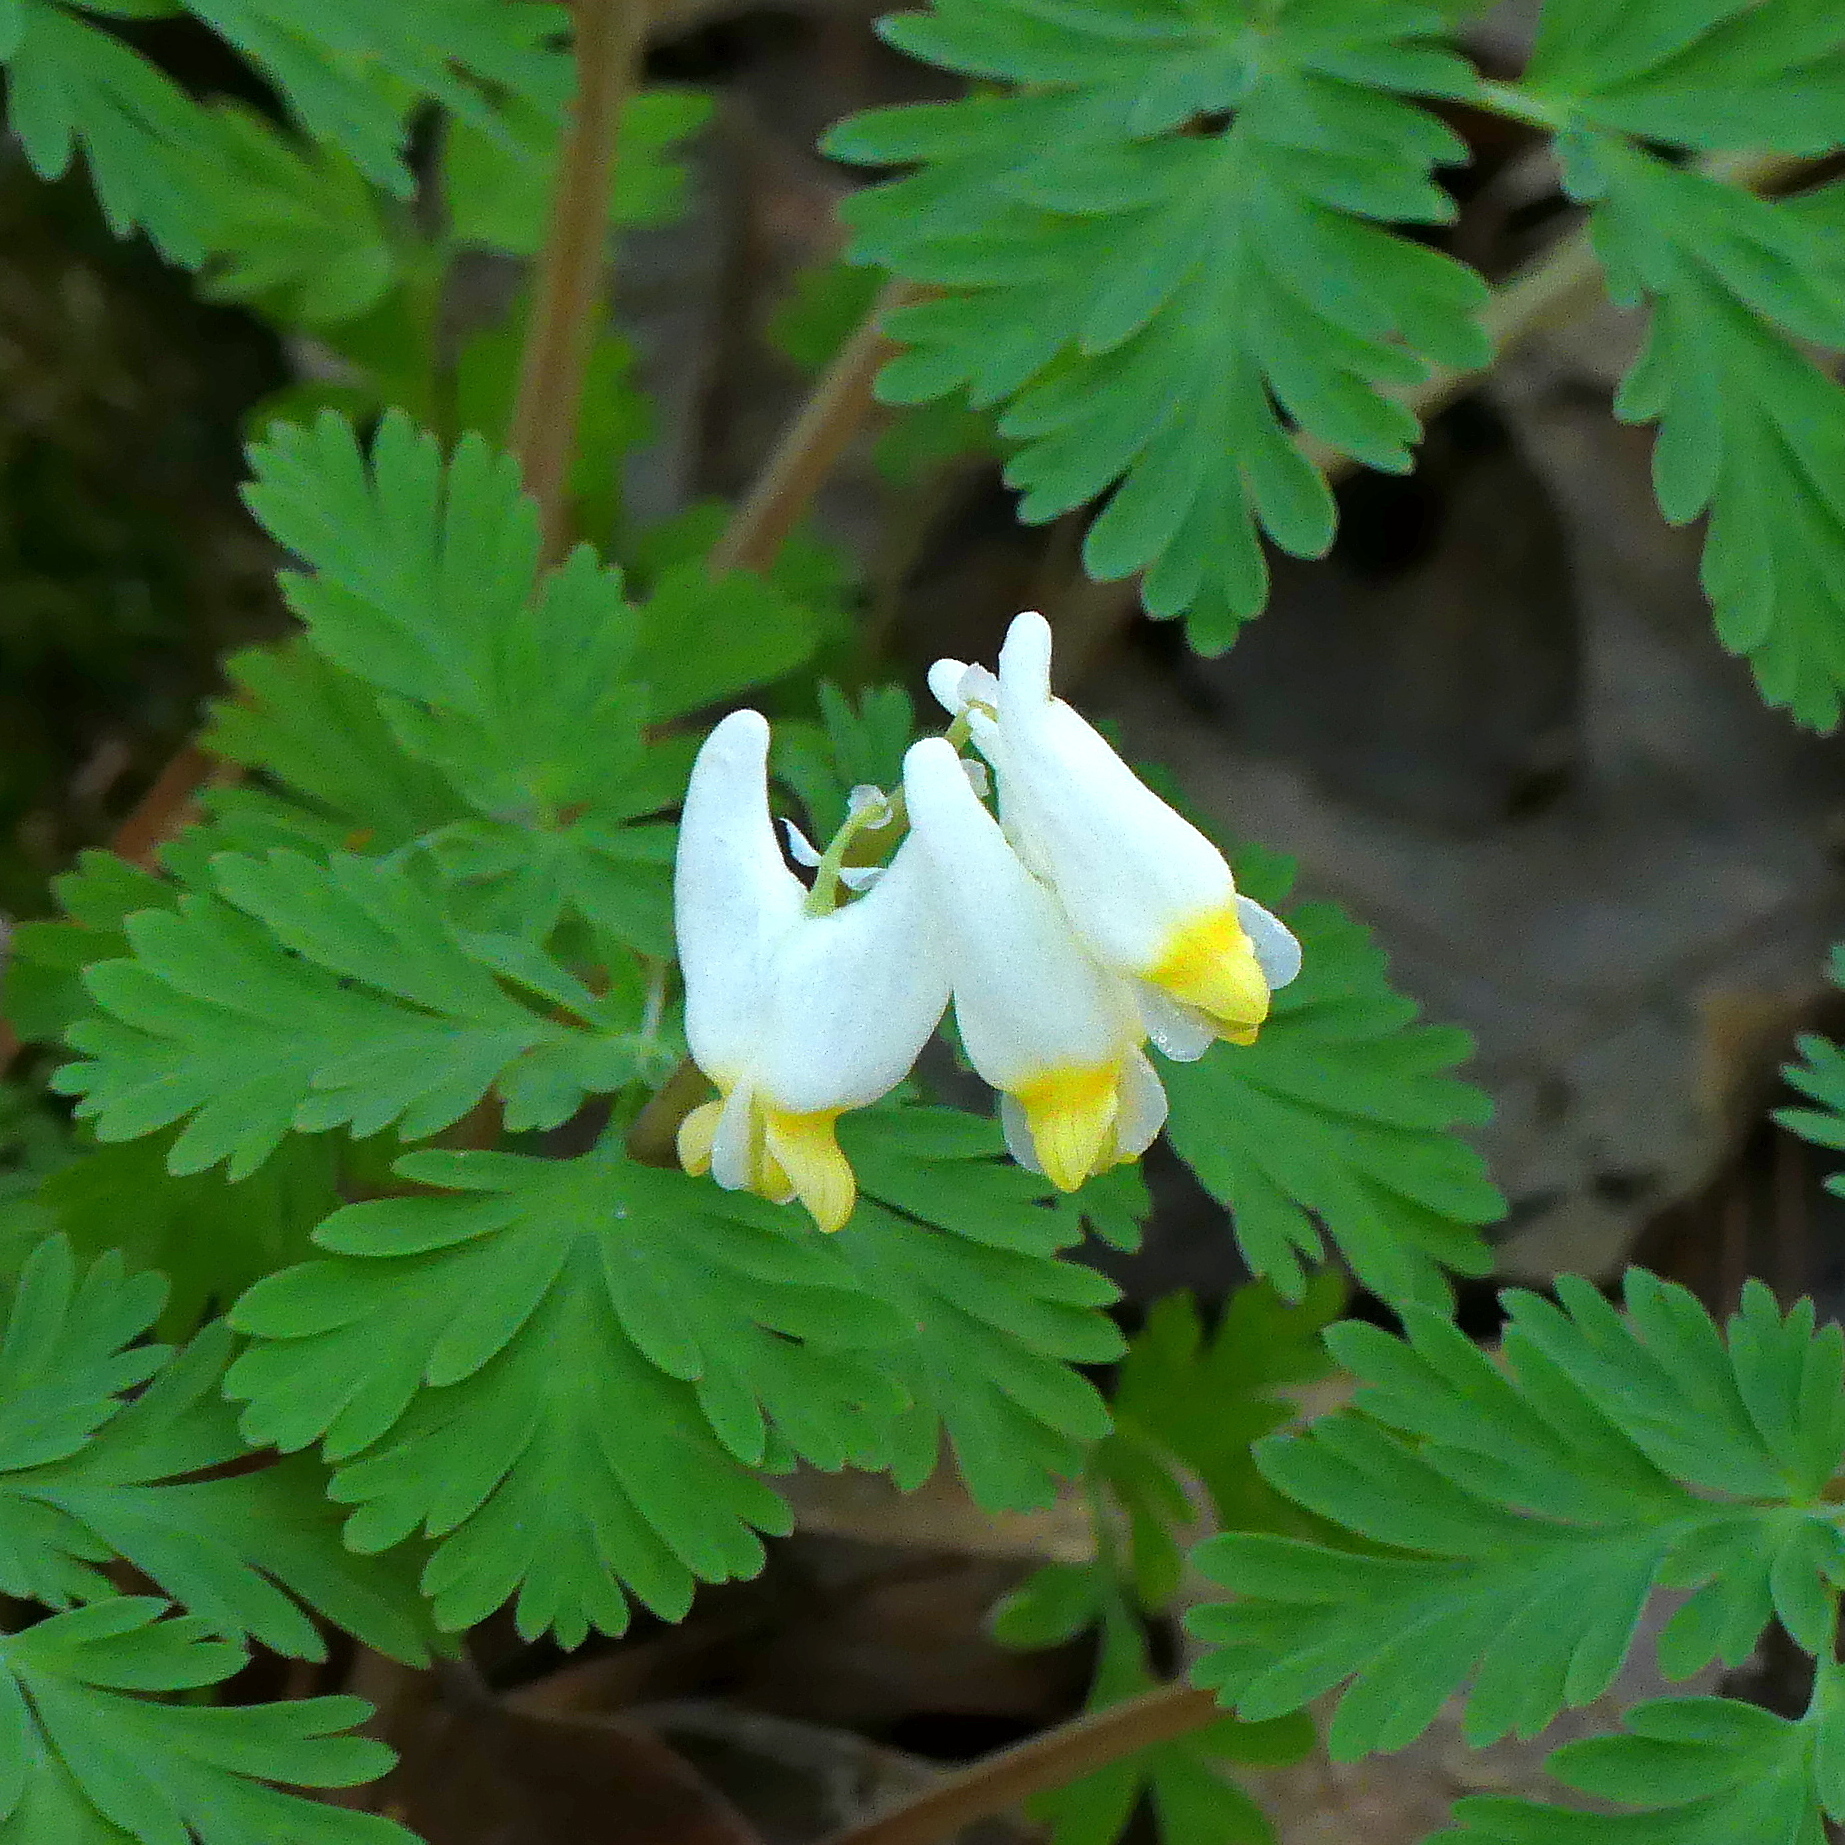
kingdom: Plantae
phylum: Tracheophyta
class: Magnoliopsida
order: Ranunculales
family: Papaveraceae
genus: Dicentra
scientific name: Dicentra cucullaria
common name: Dutchman's breeches
